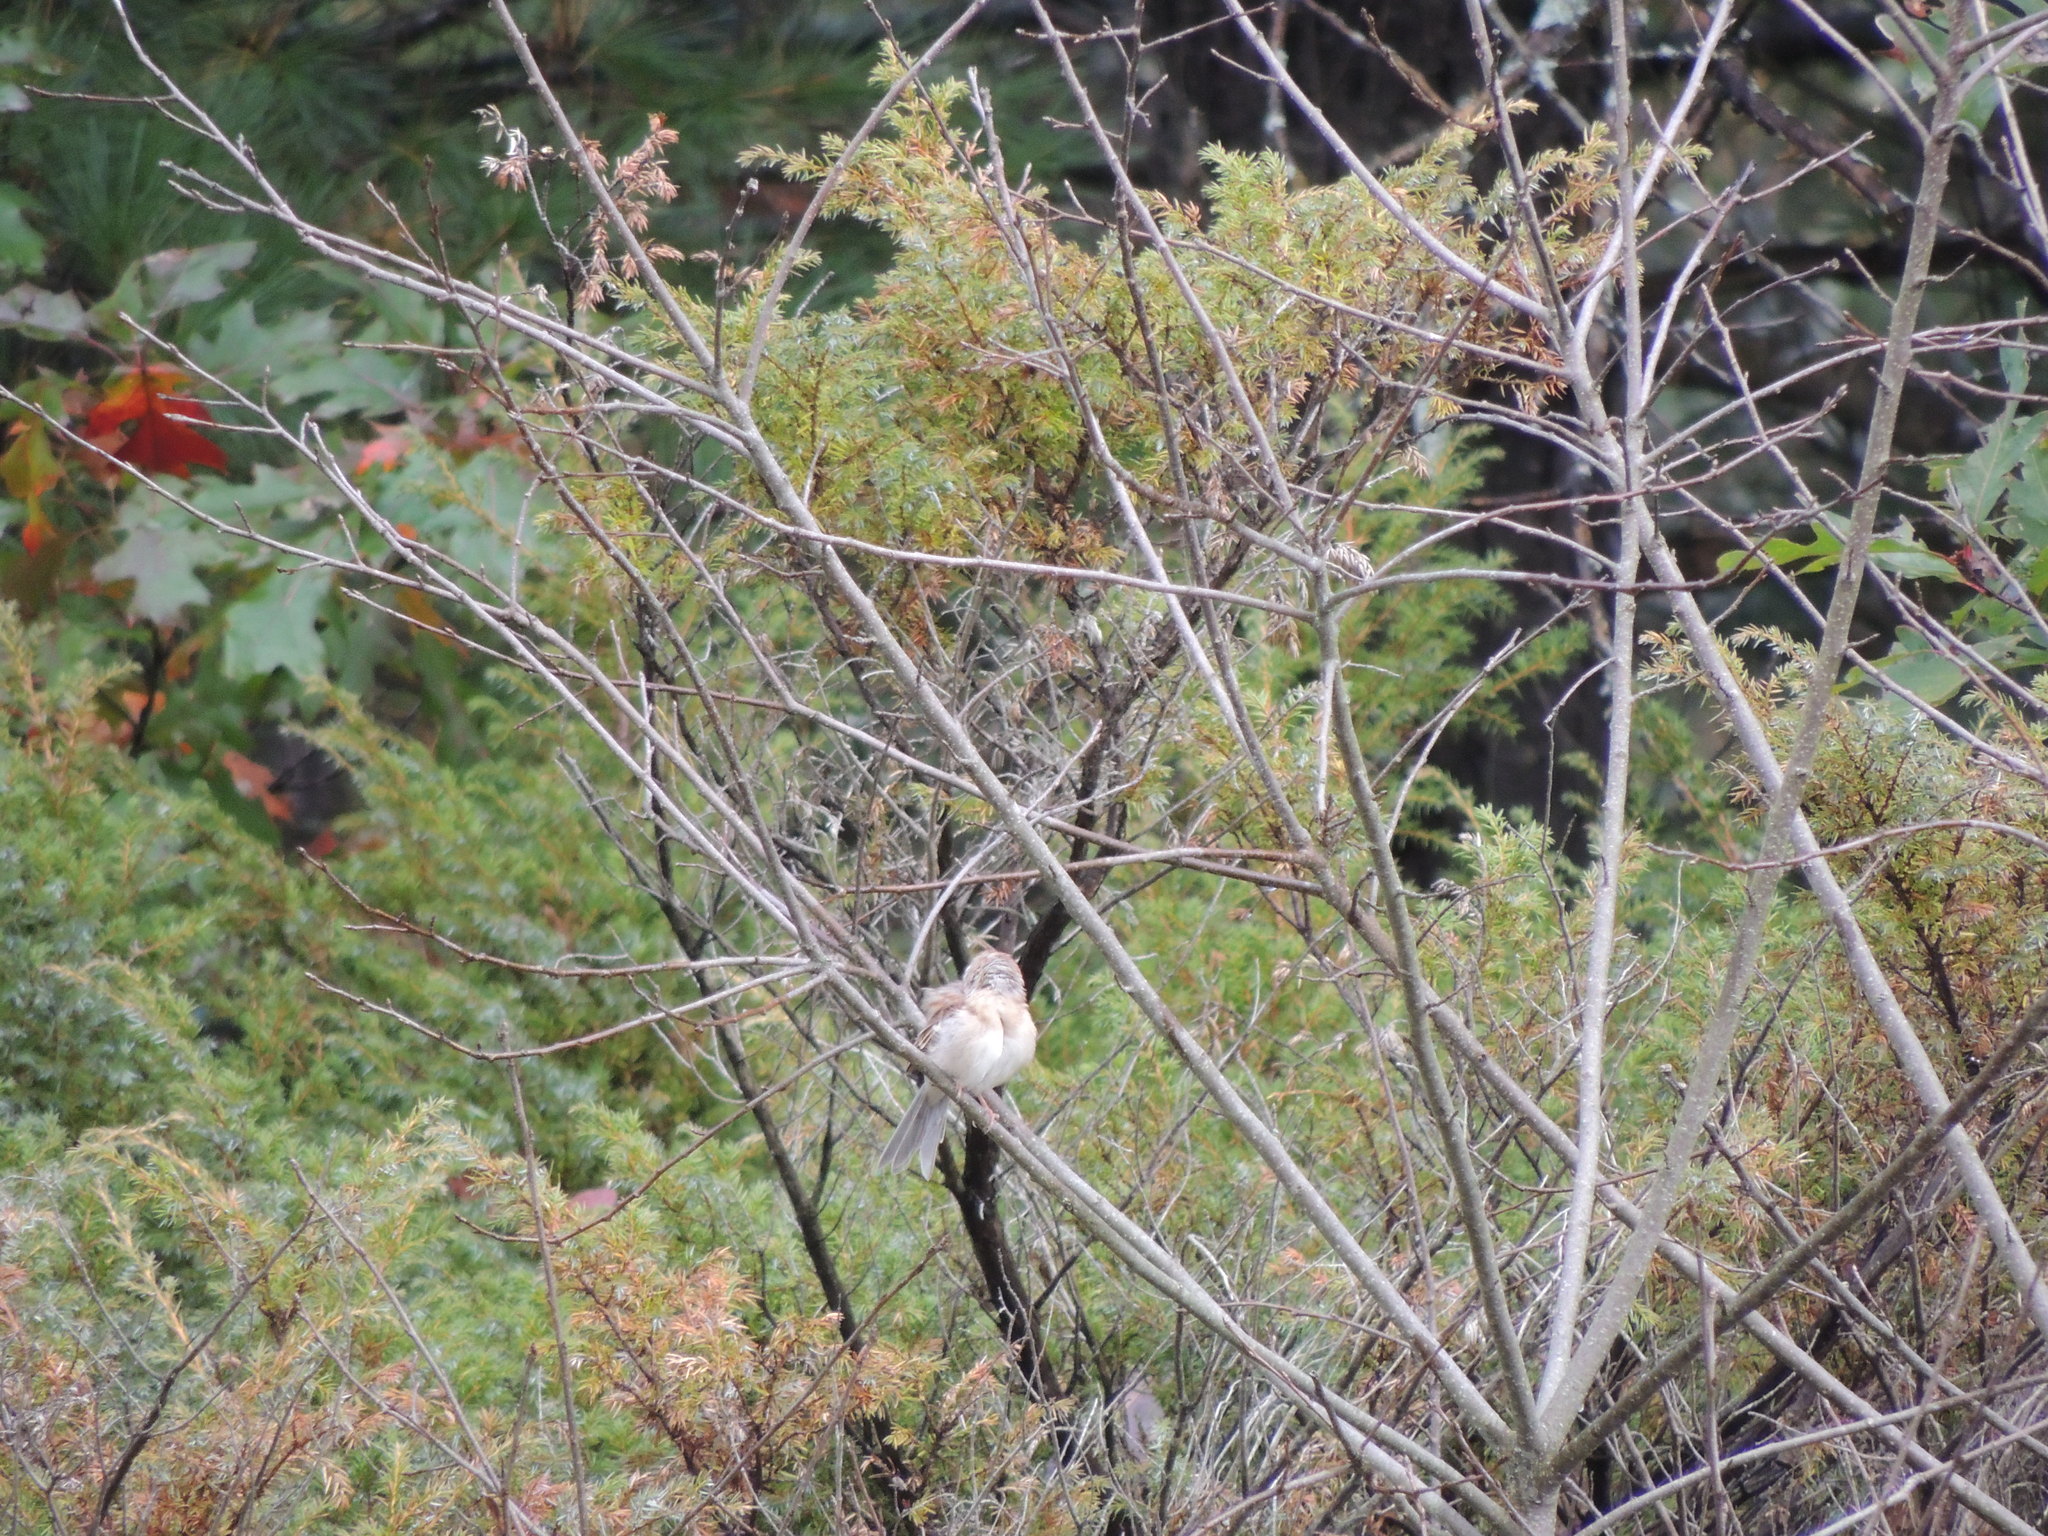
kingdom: Animalia
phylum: Chordata
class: Aves
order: Passeriformes
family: Passerellidae
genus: Spizella
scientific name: Spizella pusilla
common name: Field sparrow
